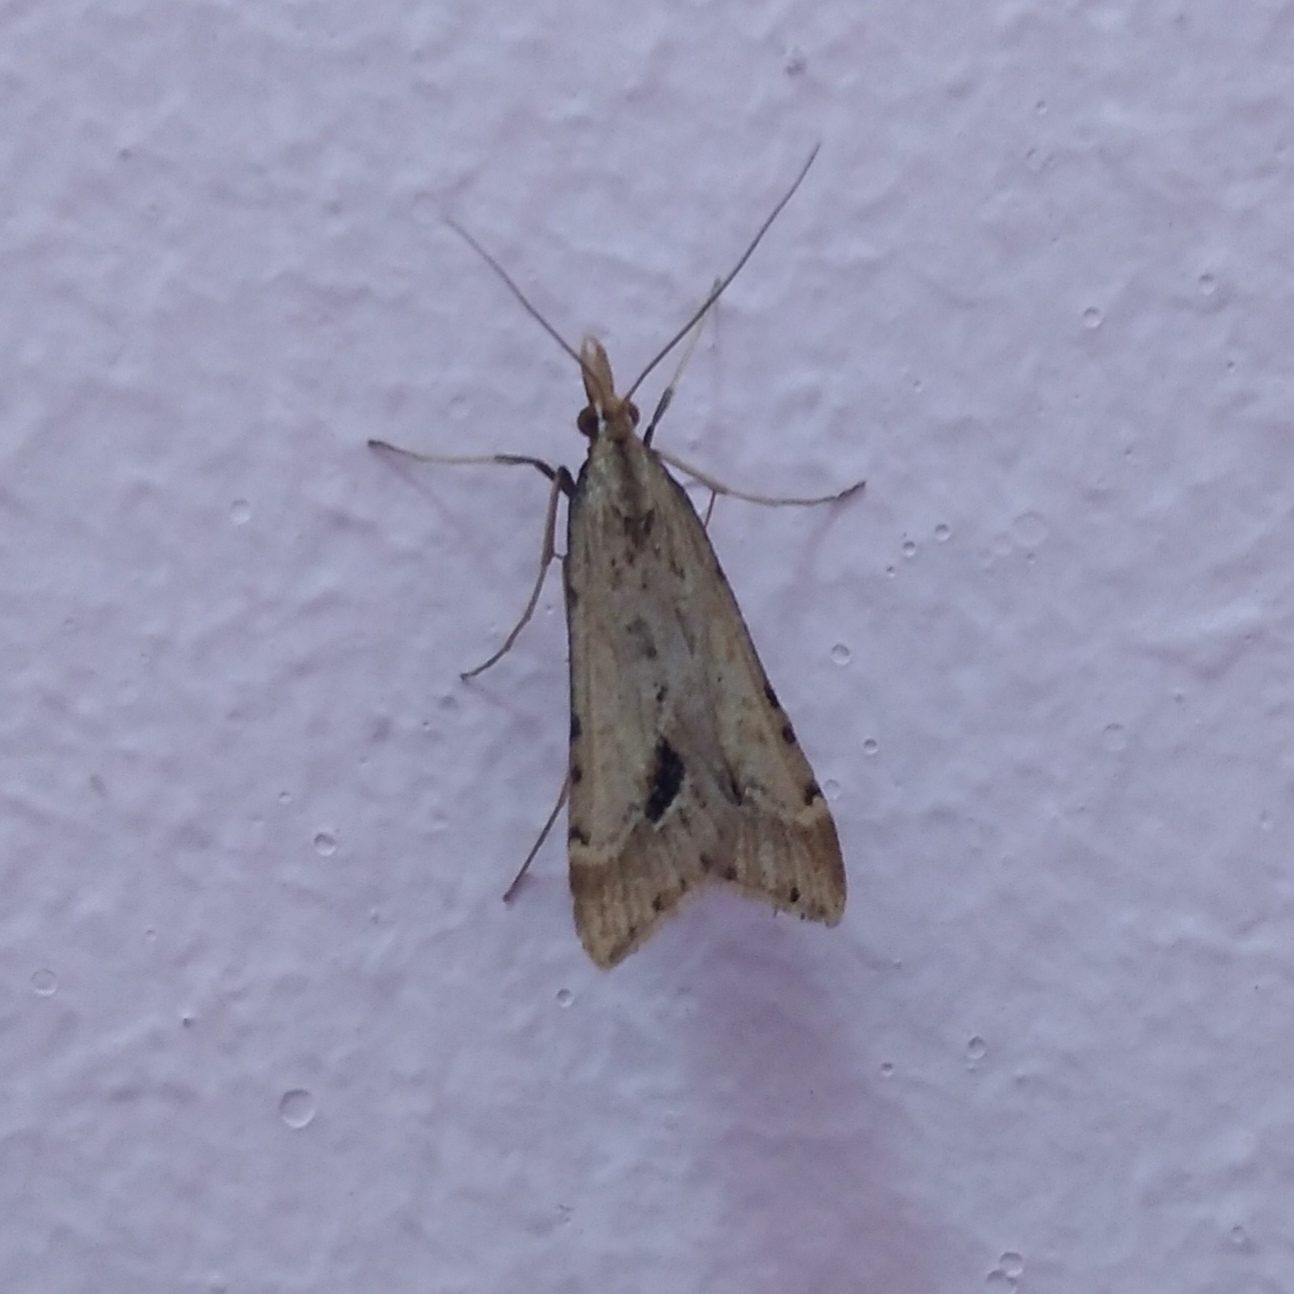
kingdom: Animalia
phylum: Arthropoda
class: Insecta
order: Lepidoptera
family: Crambidae
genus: Diasemia
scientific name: Diasemia monostigma
